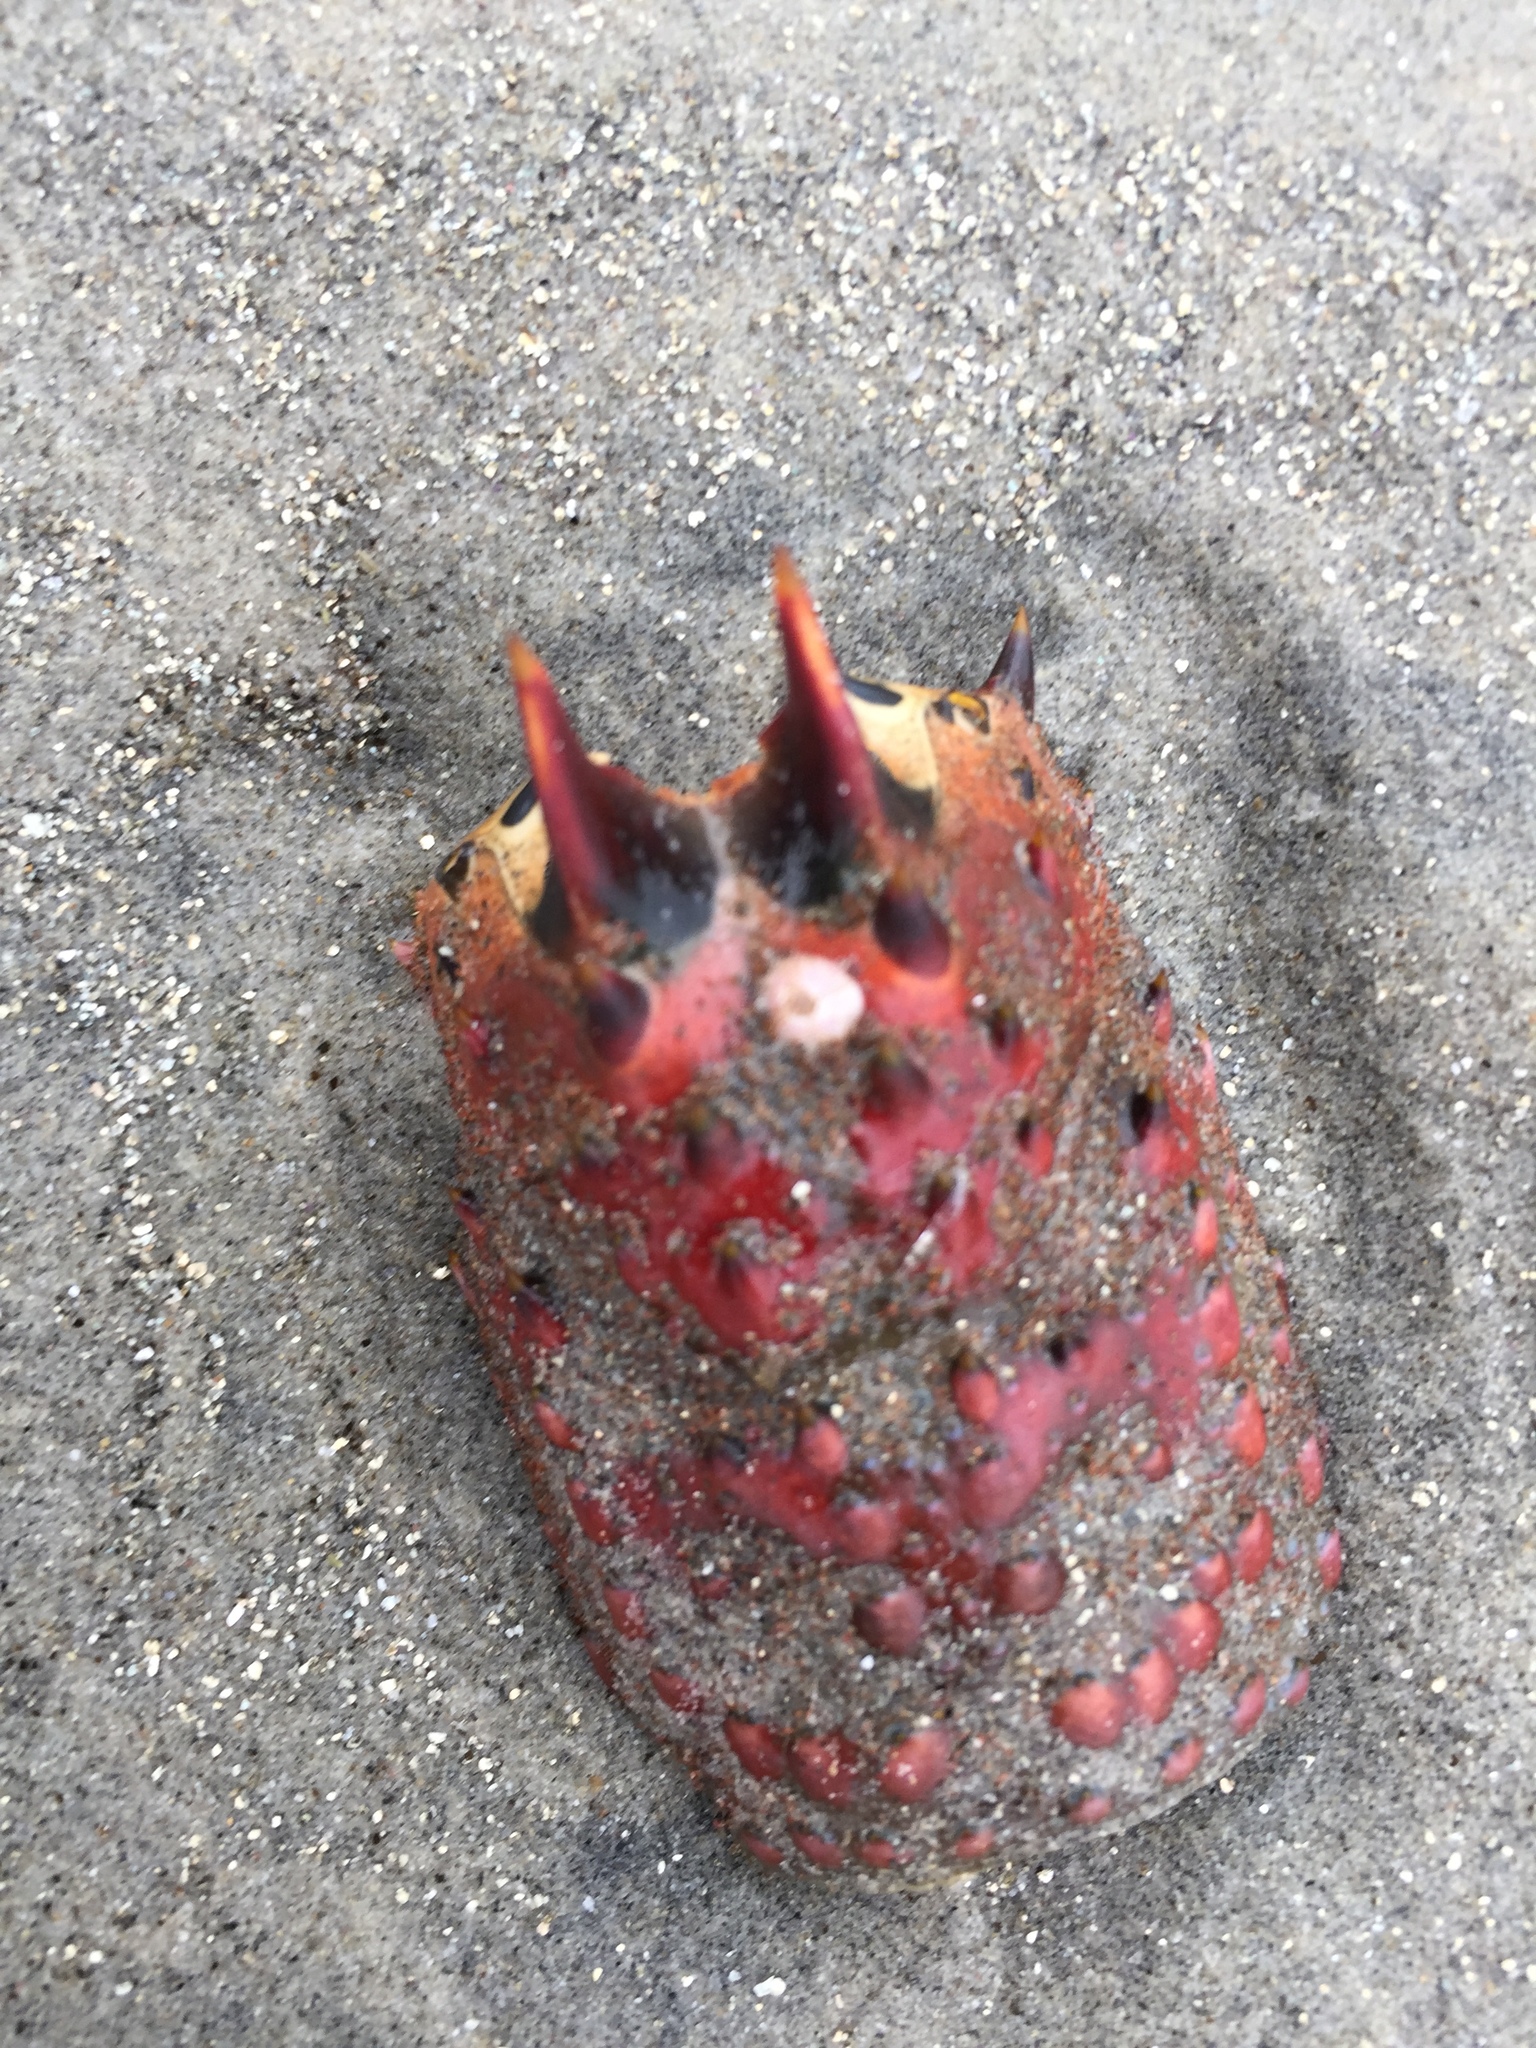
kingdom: Animalia
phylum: Arthropoda
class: Malacostraca
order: Decapoda
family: Palinuridae
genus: Panulirus
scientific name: Panulirus interruptus
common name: California spiny lobster
